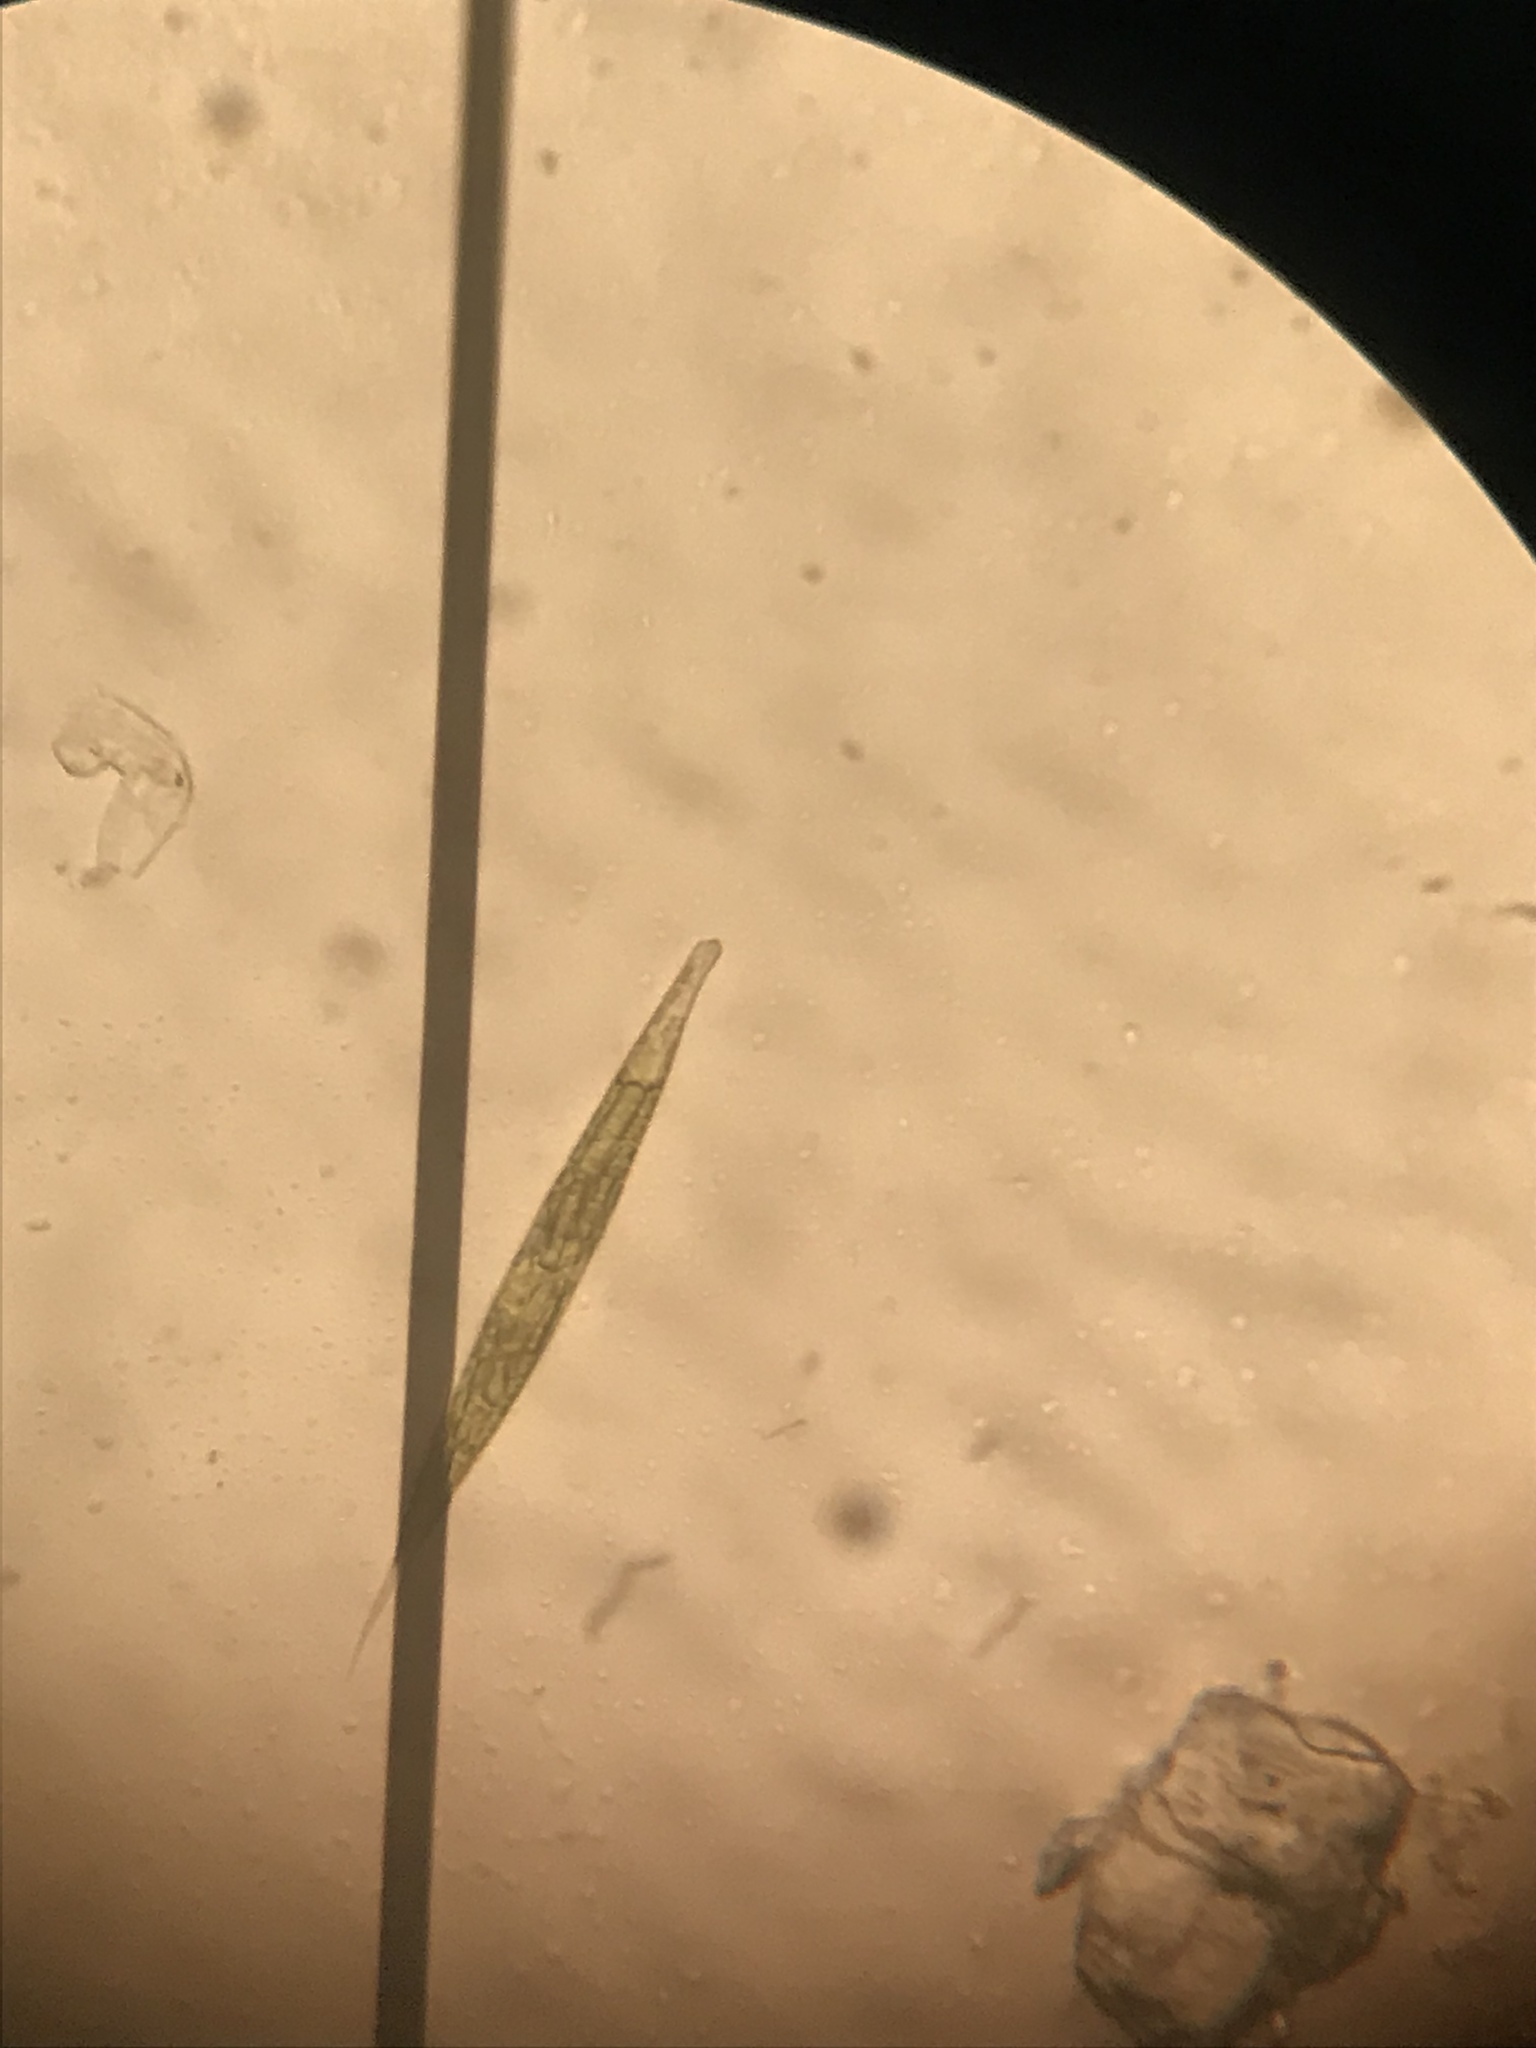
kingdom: Protozoa
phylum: Euglenozoa
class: Euglenoidea
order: Euglenida
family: Phacidae
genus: Lepocinclis
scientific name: Lepocinclis acus
